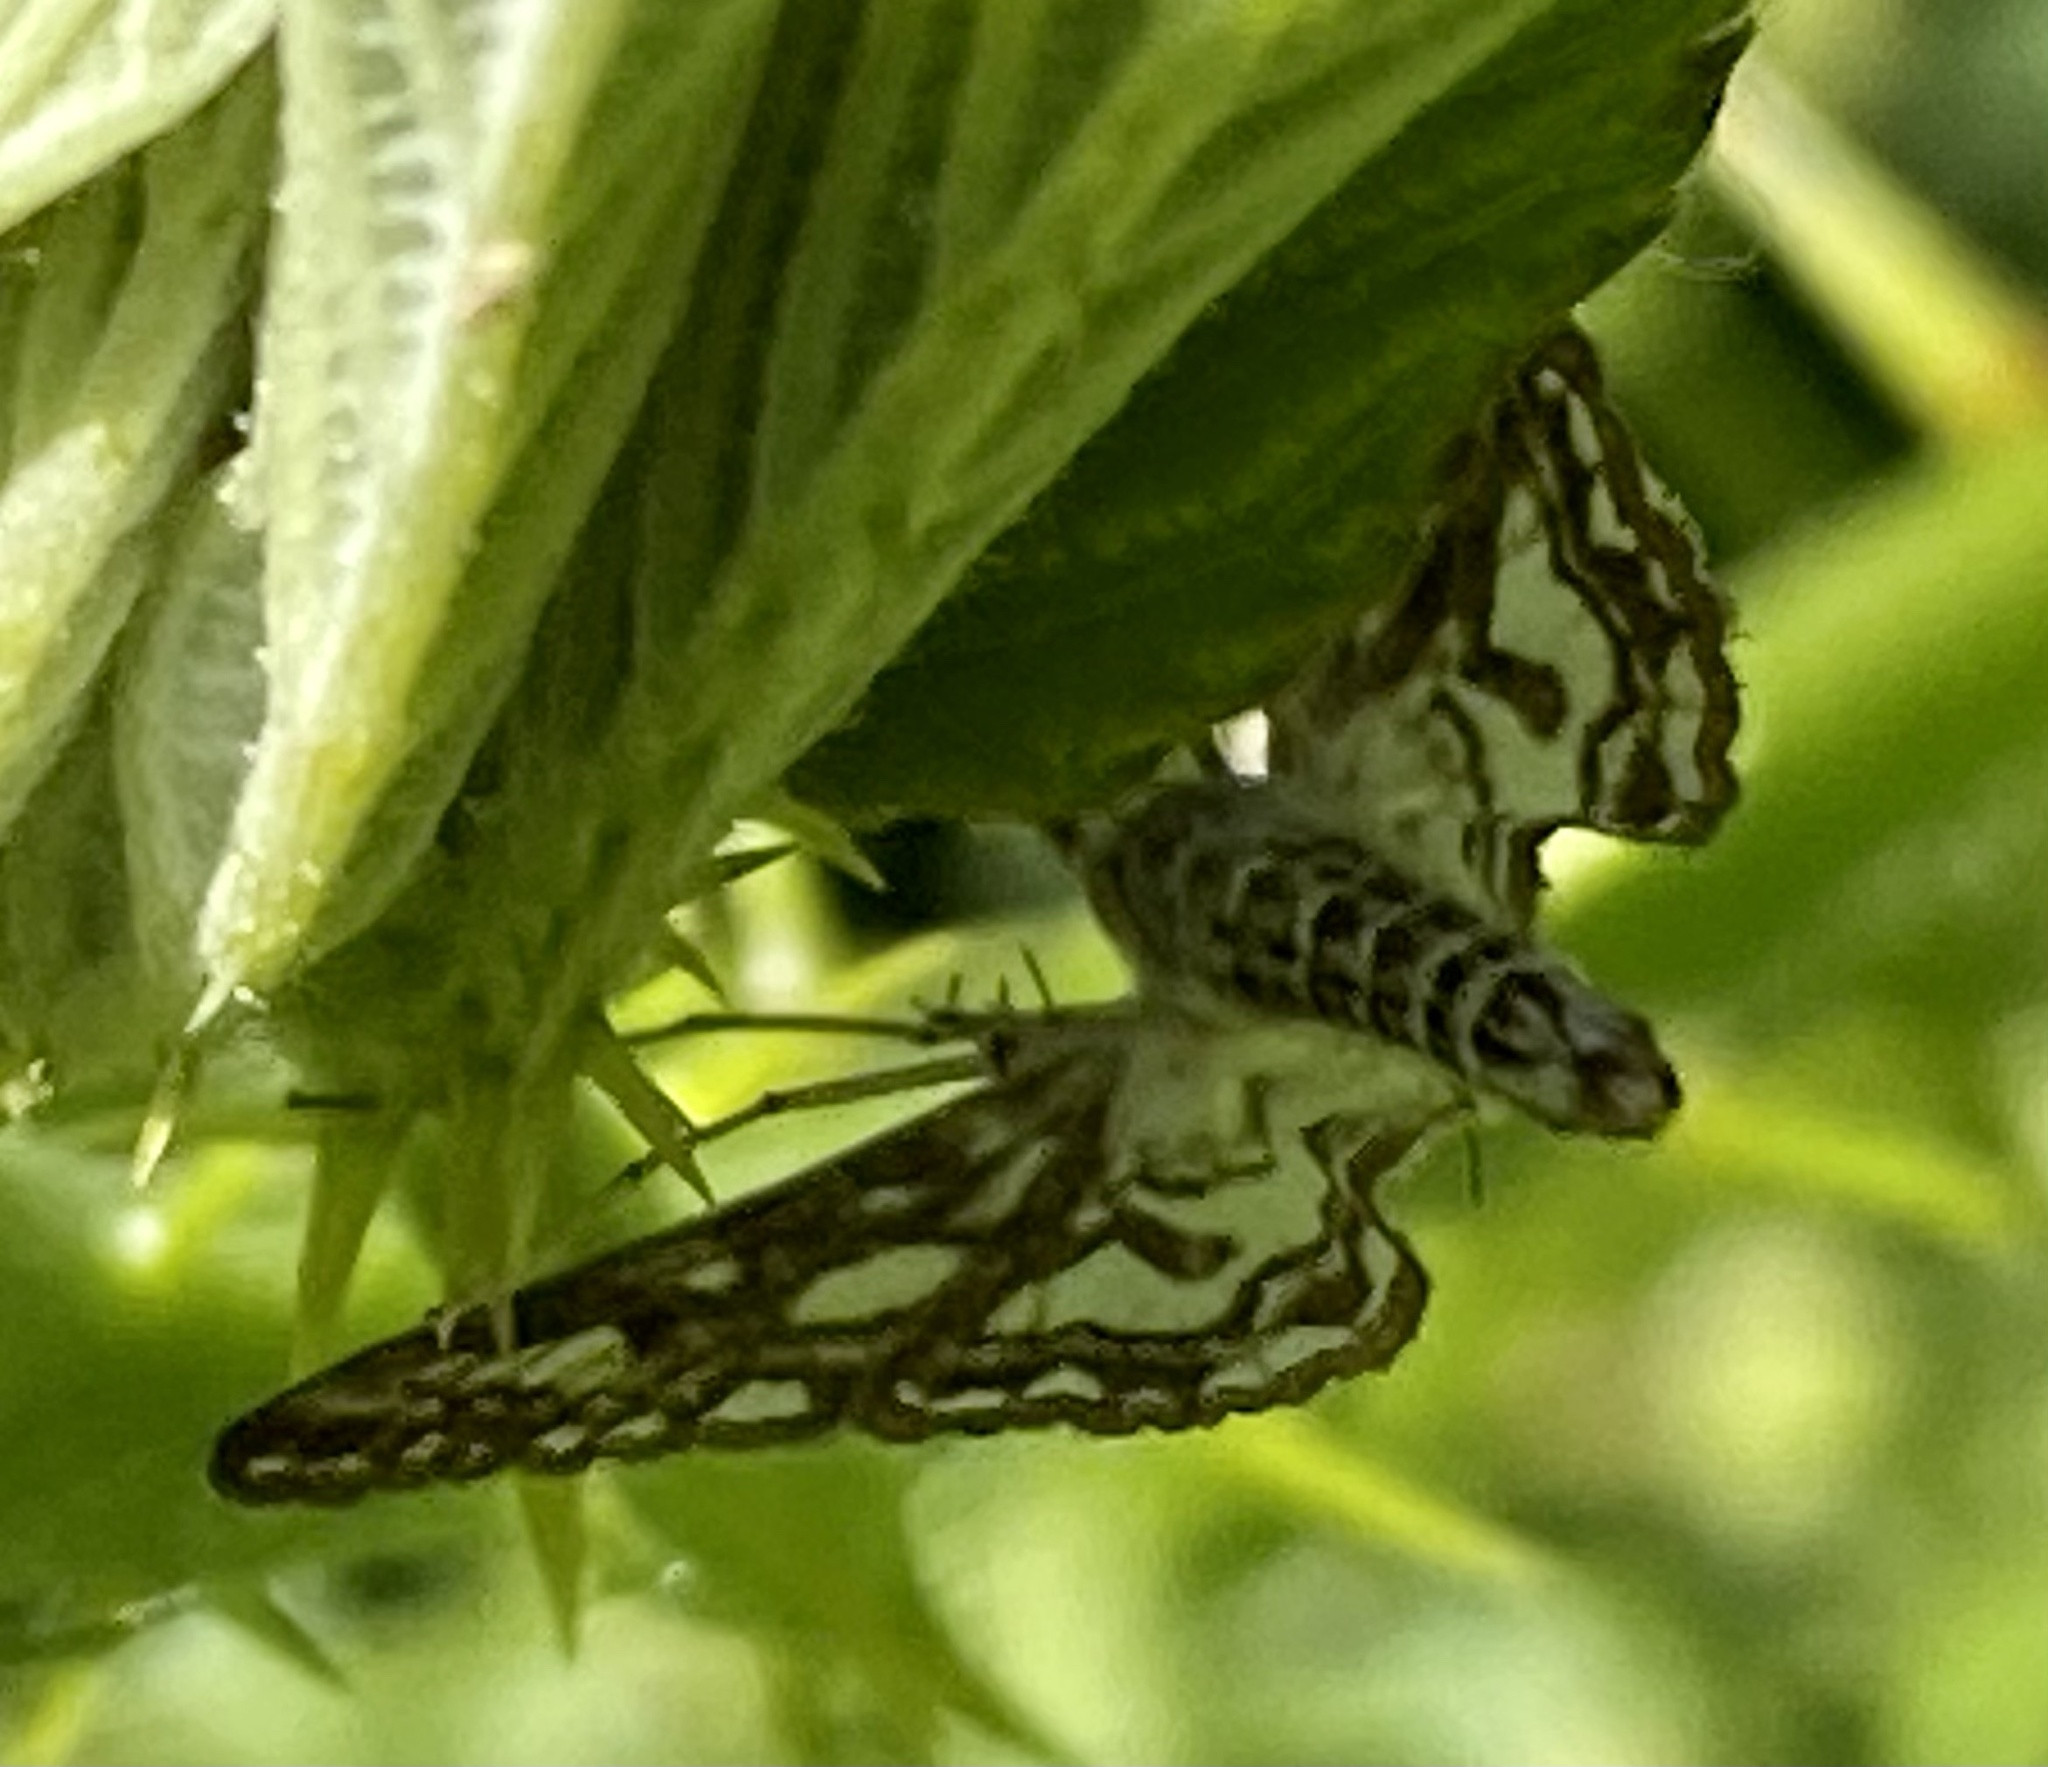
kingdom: Animalia
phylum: Arthropoda
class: Insecta
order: Lepidoptera
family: Crambidae
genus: Elophila
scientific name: Elophila nymphaeata
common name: Brown china-mark
